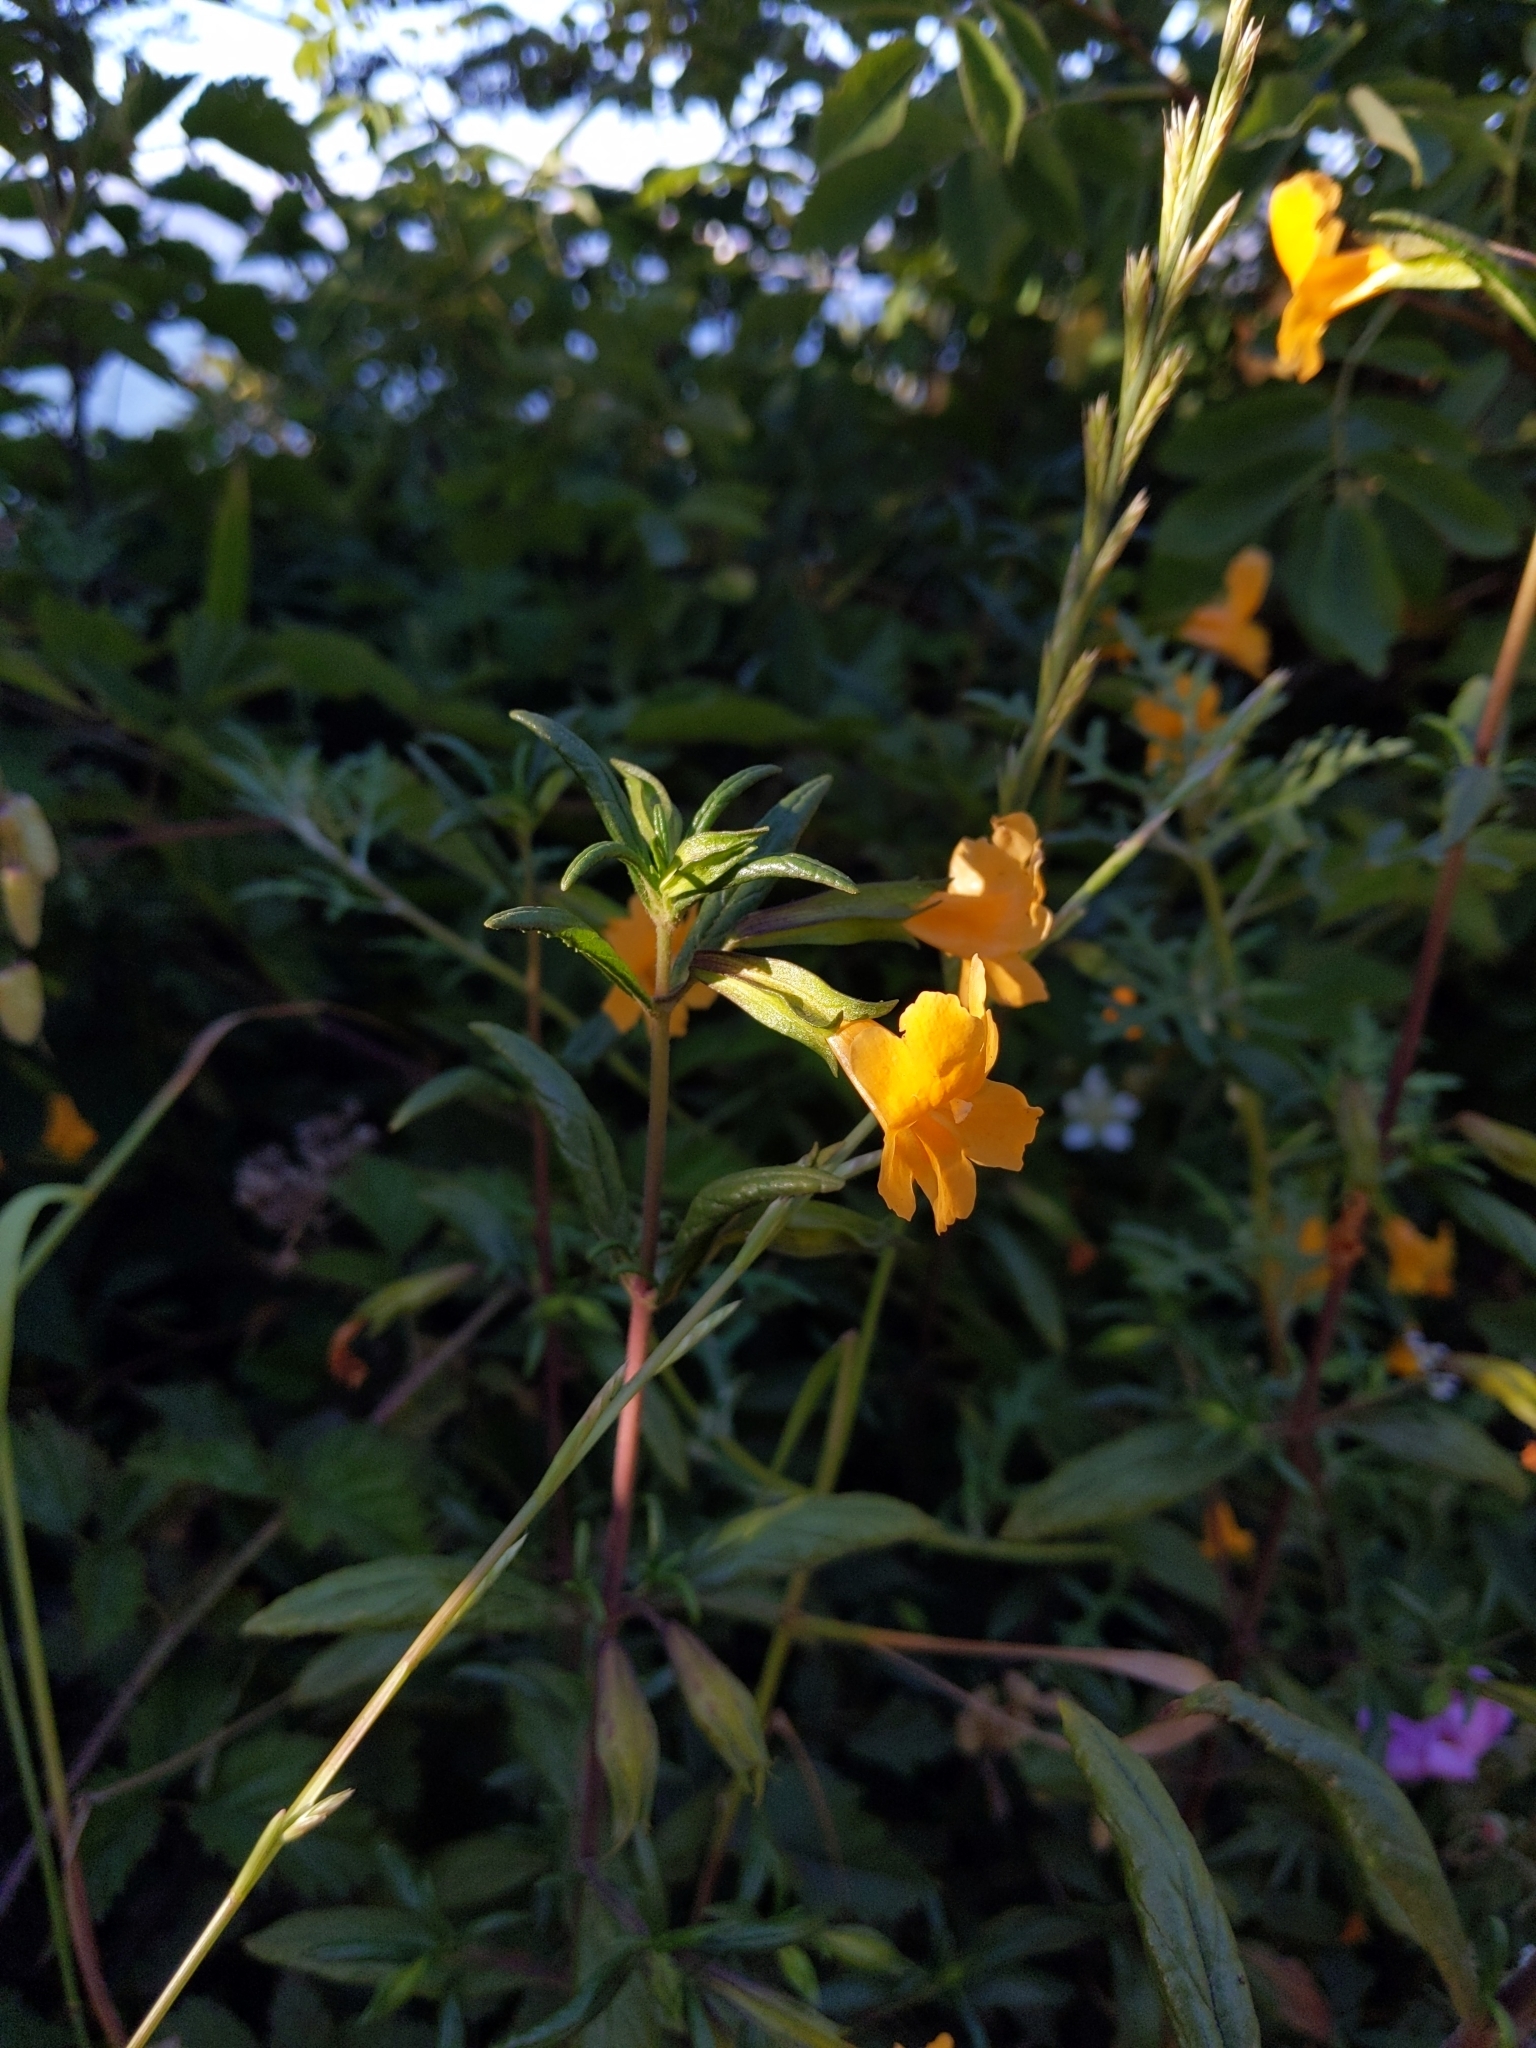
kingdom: Plantae
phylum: Tracheophyta
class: Magnoliopsida
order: Lamiales
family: Phrymaceae
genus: Diplacus
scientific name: Diplacus aurantiacus
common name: Bush monkey-flower
